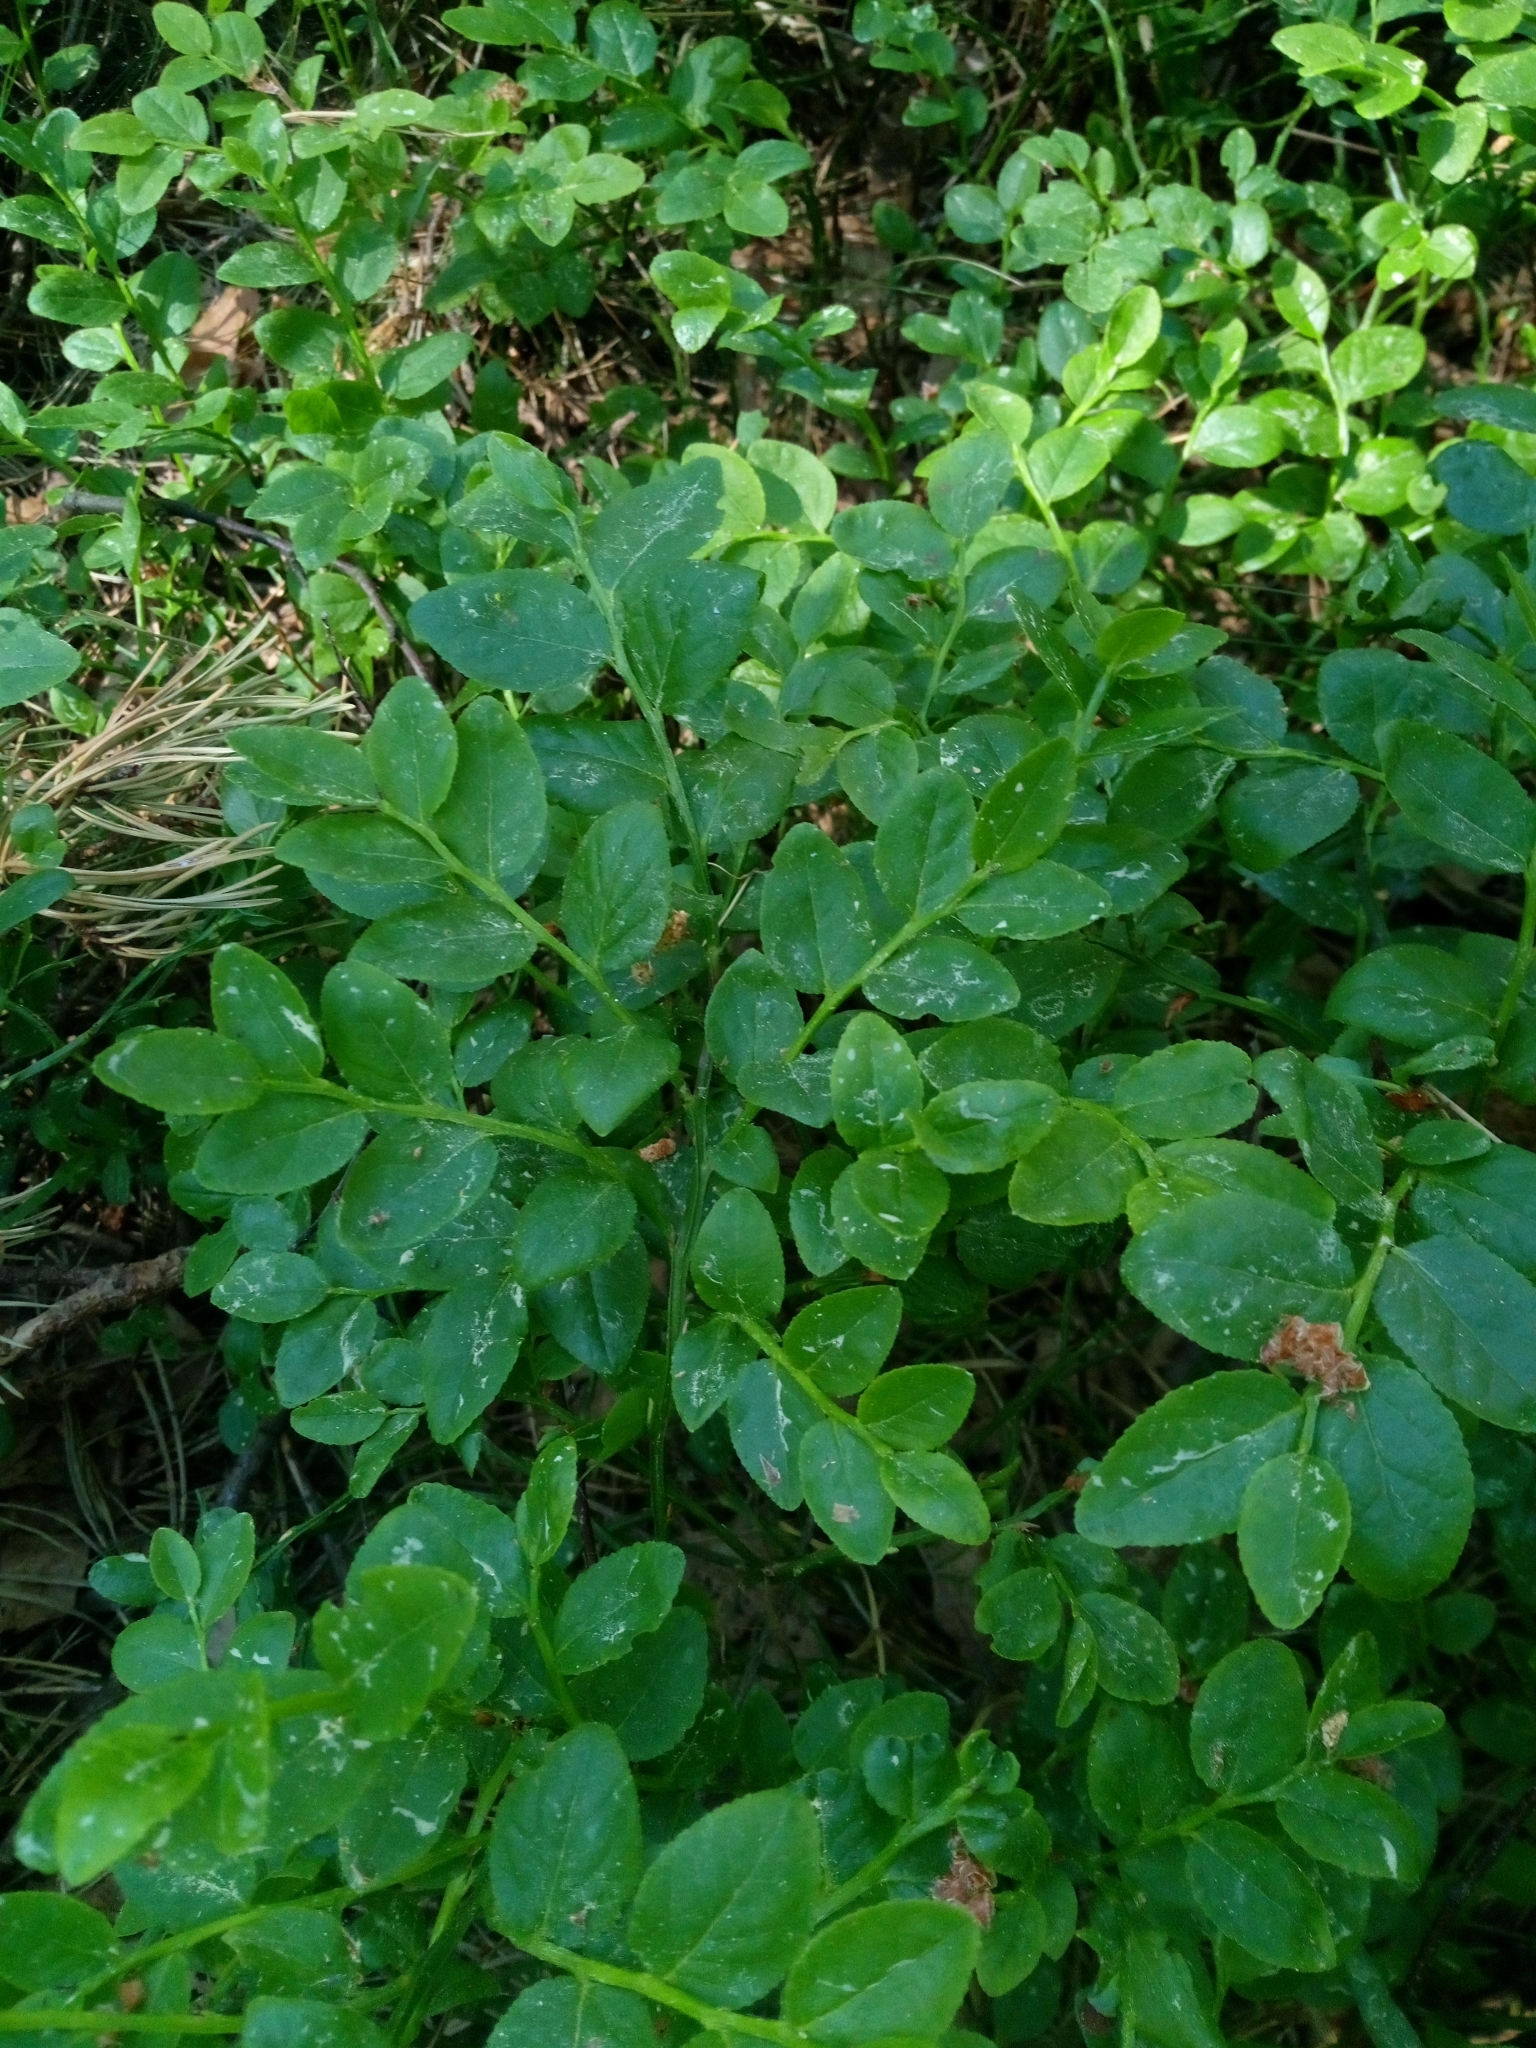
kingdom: Plantae
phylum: Tracheophyta
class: Magnoliopsida
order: Ericales
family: Ericaceae
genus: Vaccinium
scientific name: Vaccinium myrtillus
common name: Bilberry
